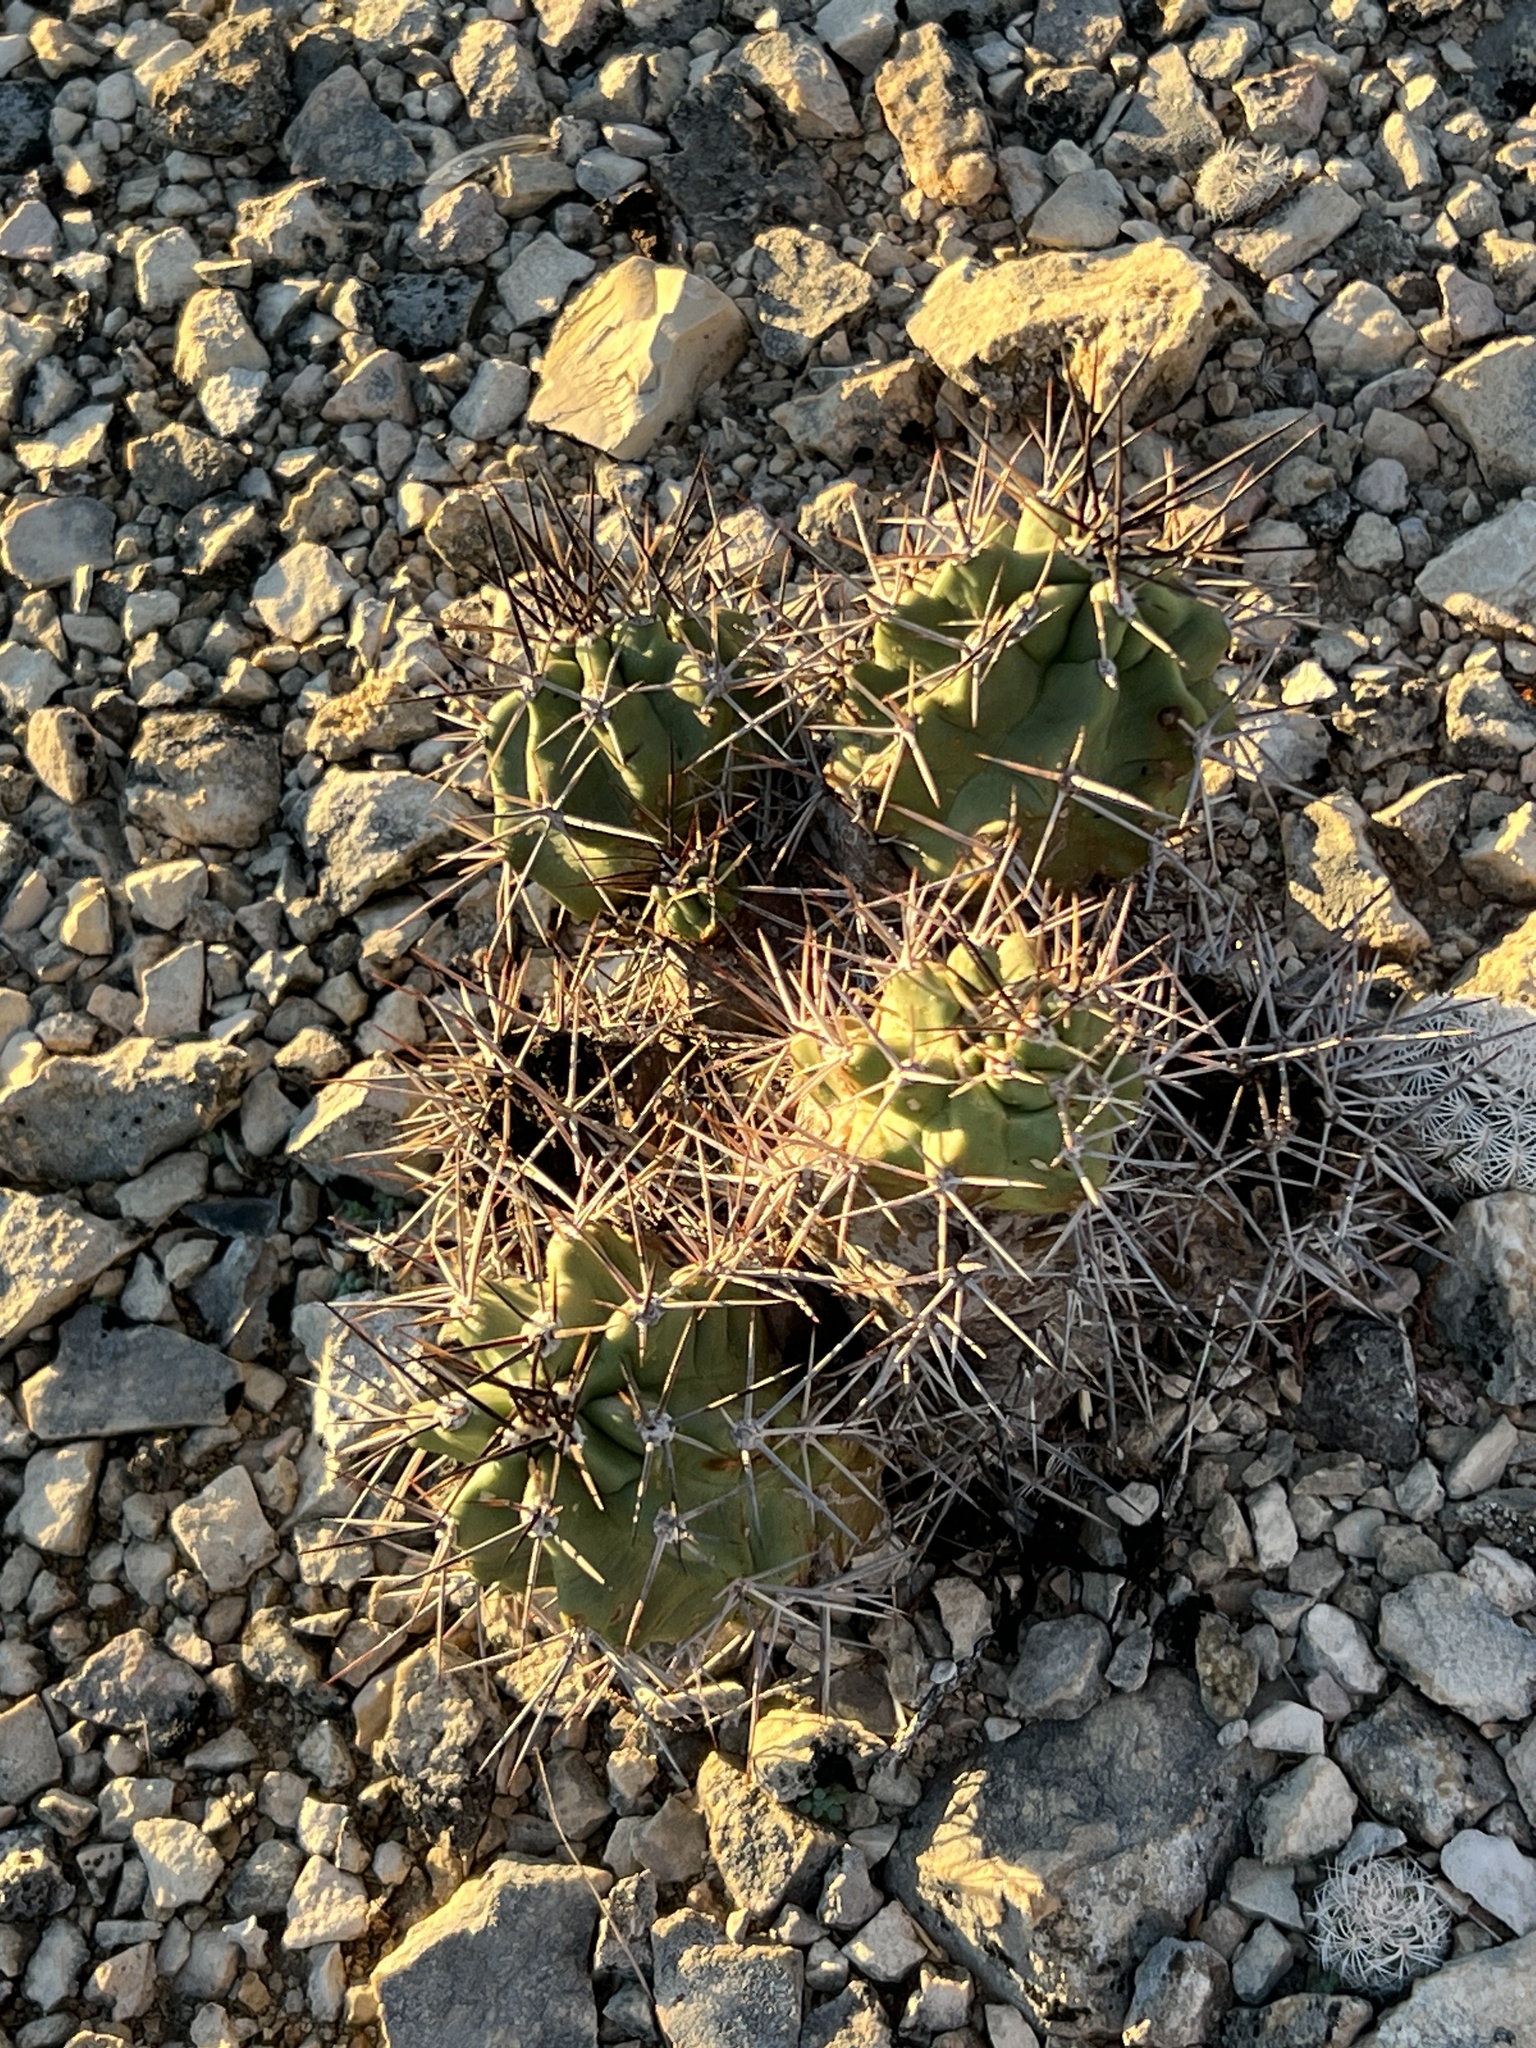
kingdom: Plantae
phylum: Tracheophyta
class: Magnoliopsida
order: Caryophyllales
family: Cactaceae
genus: Echinocereus
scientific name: Echinocereus coccineus
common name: Scarlet hedgehog cactus
